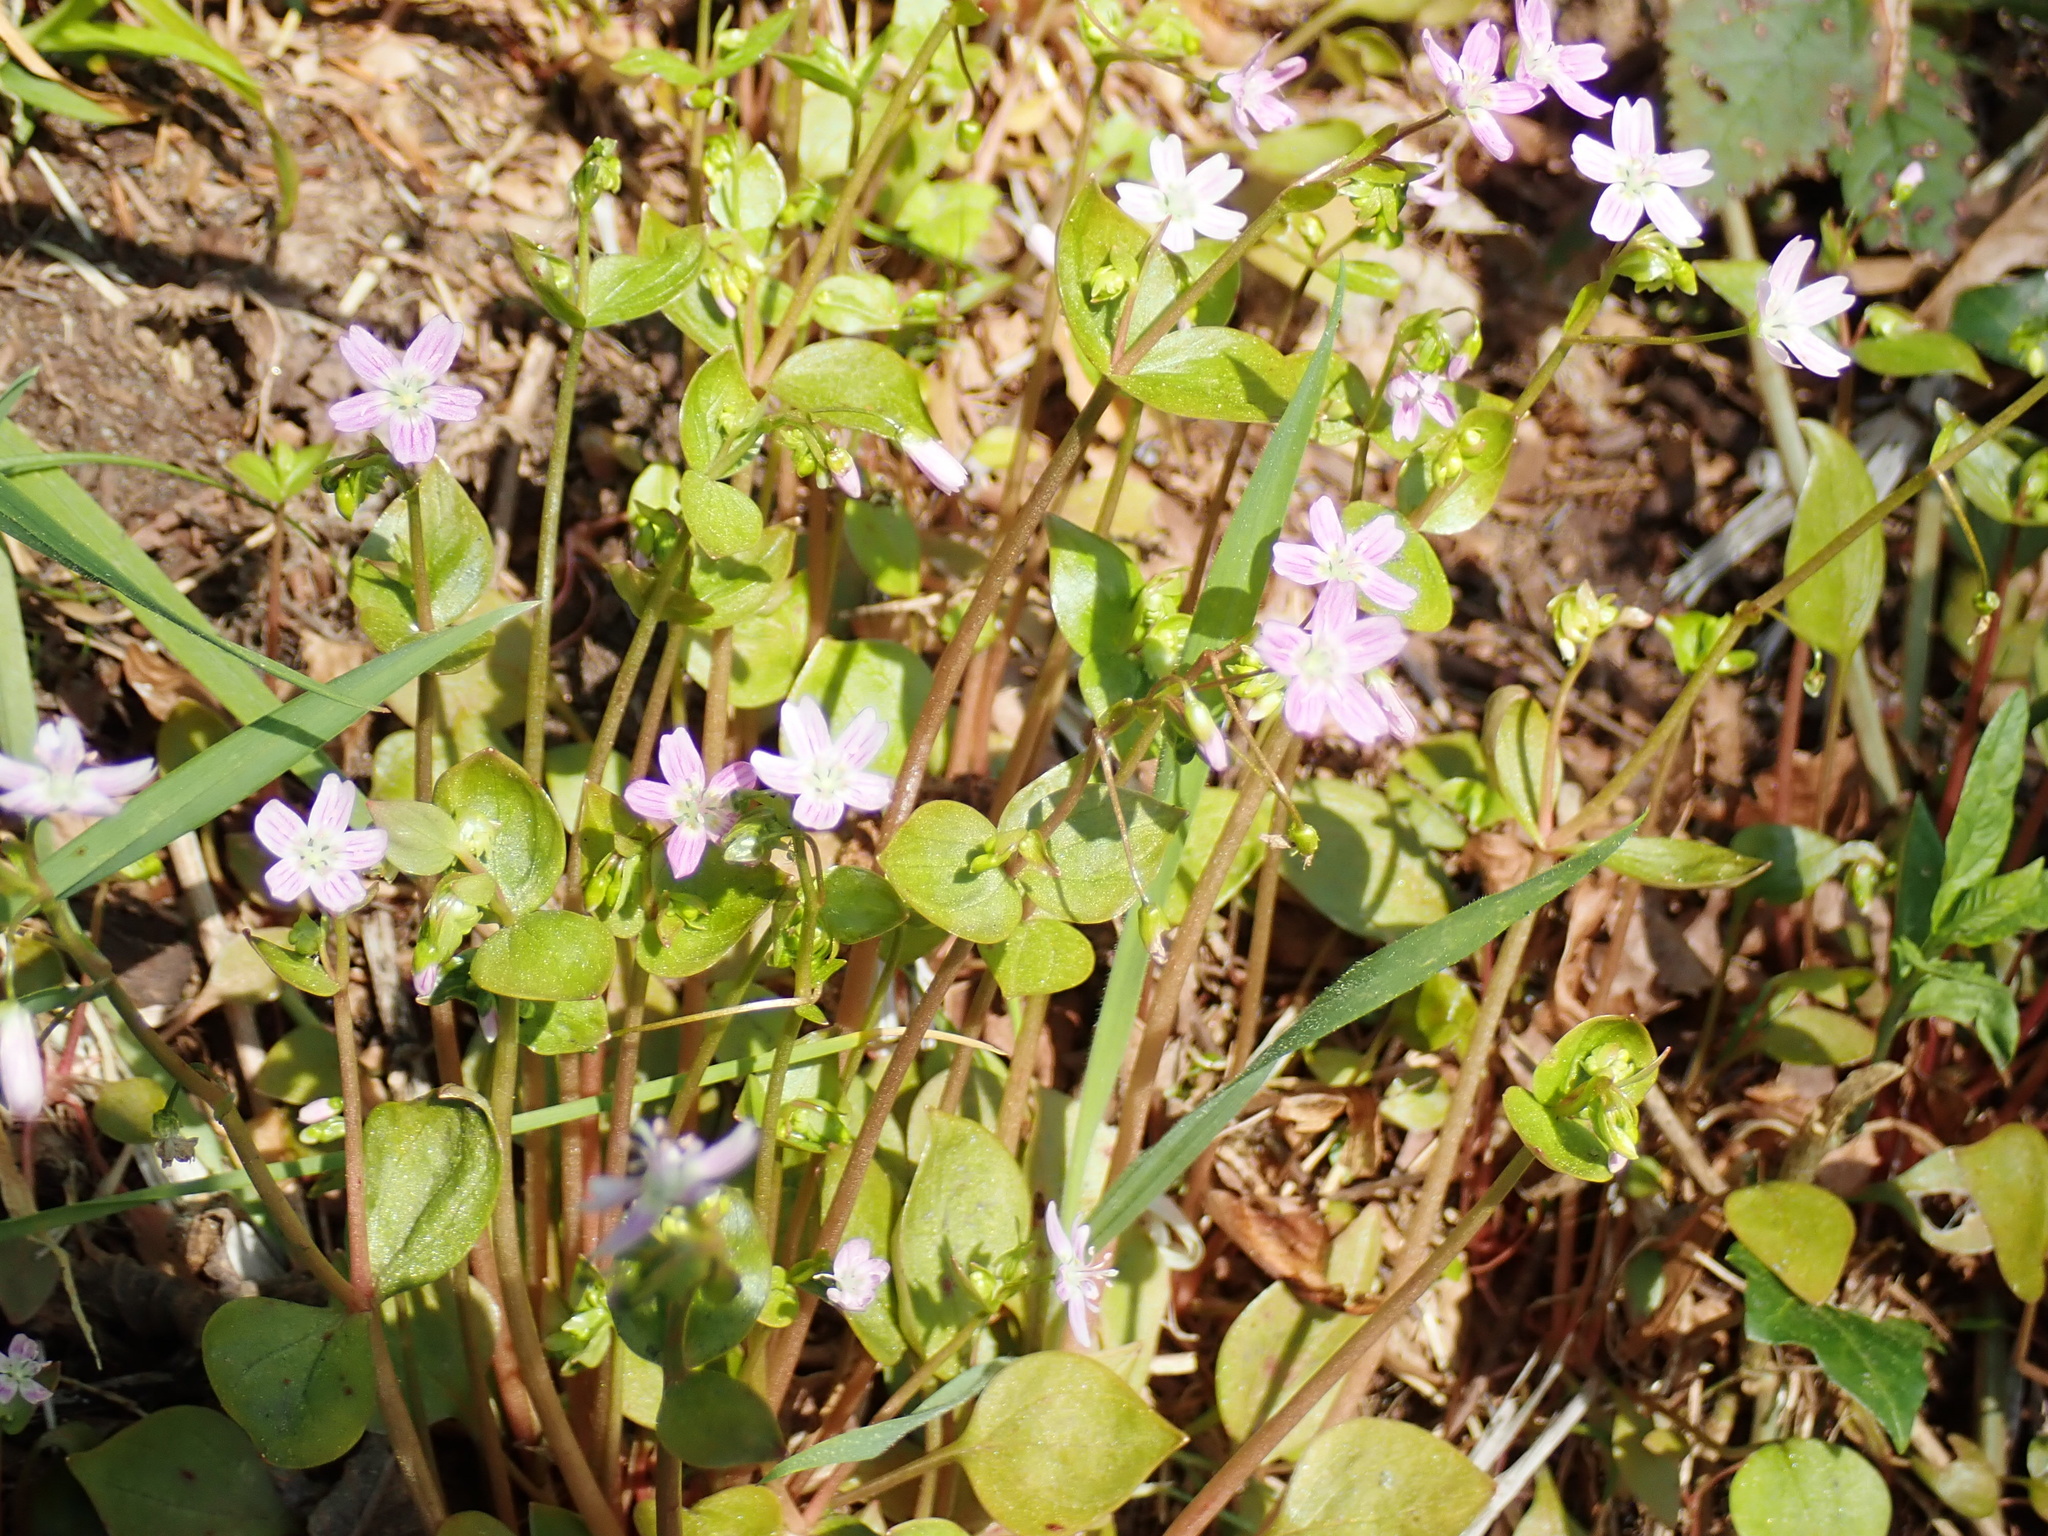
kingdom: Plantae
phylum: Tracheophyta
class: Magnoliopsida
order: Caryophyllales
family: Montiaceae
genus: Claytonia
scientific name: Claytonia sibirica
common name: Pink purslane
